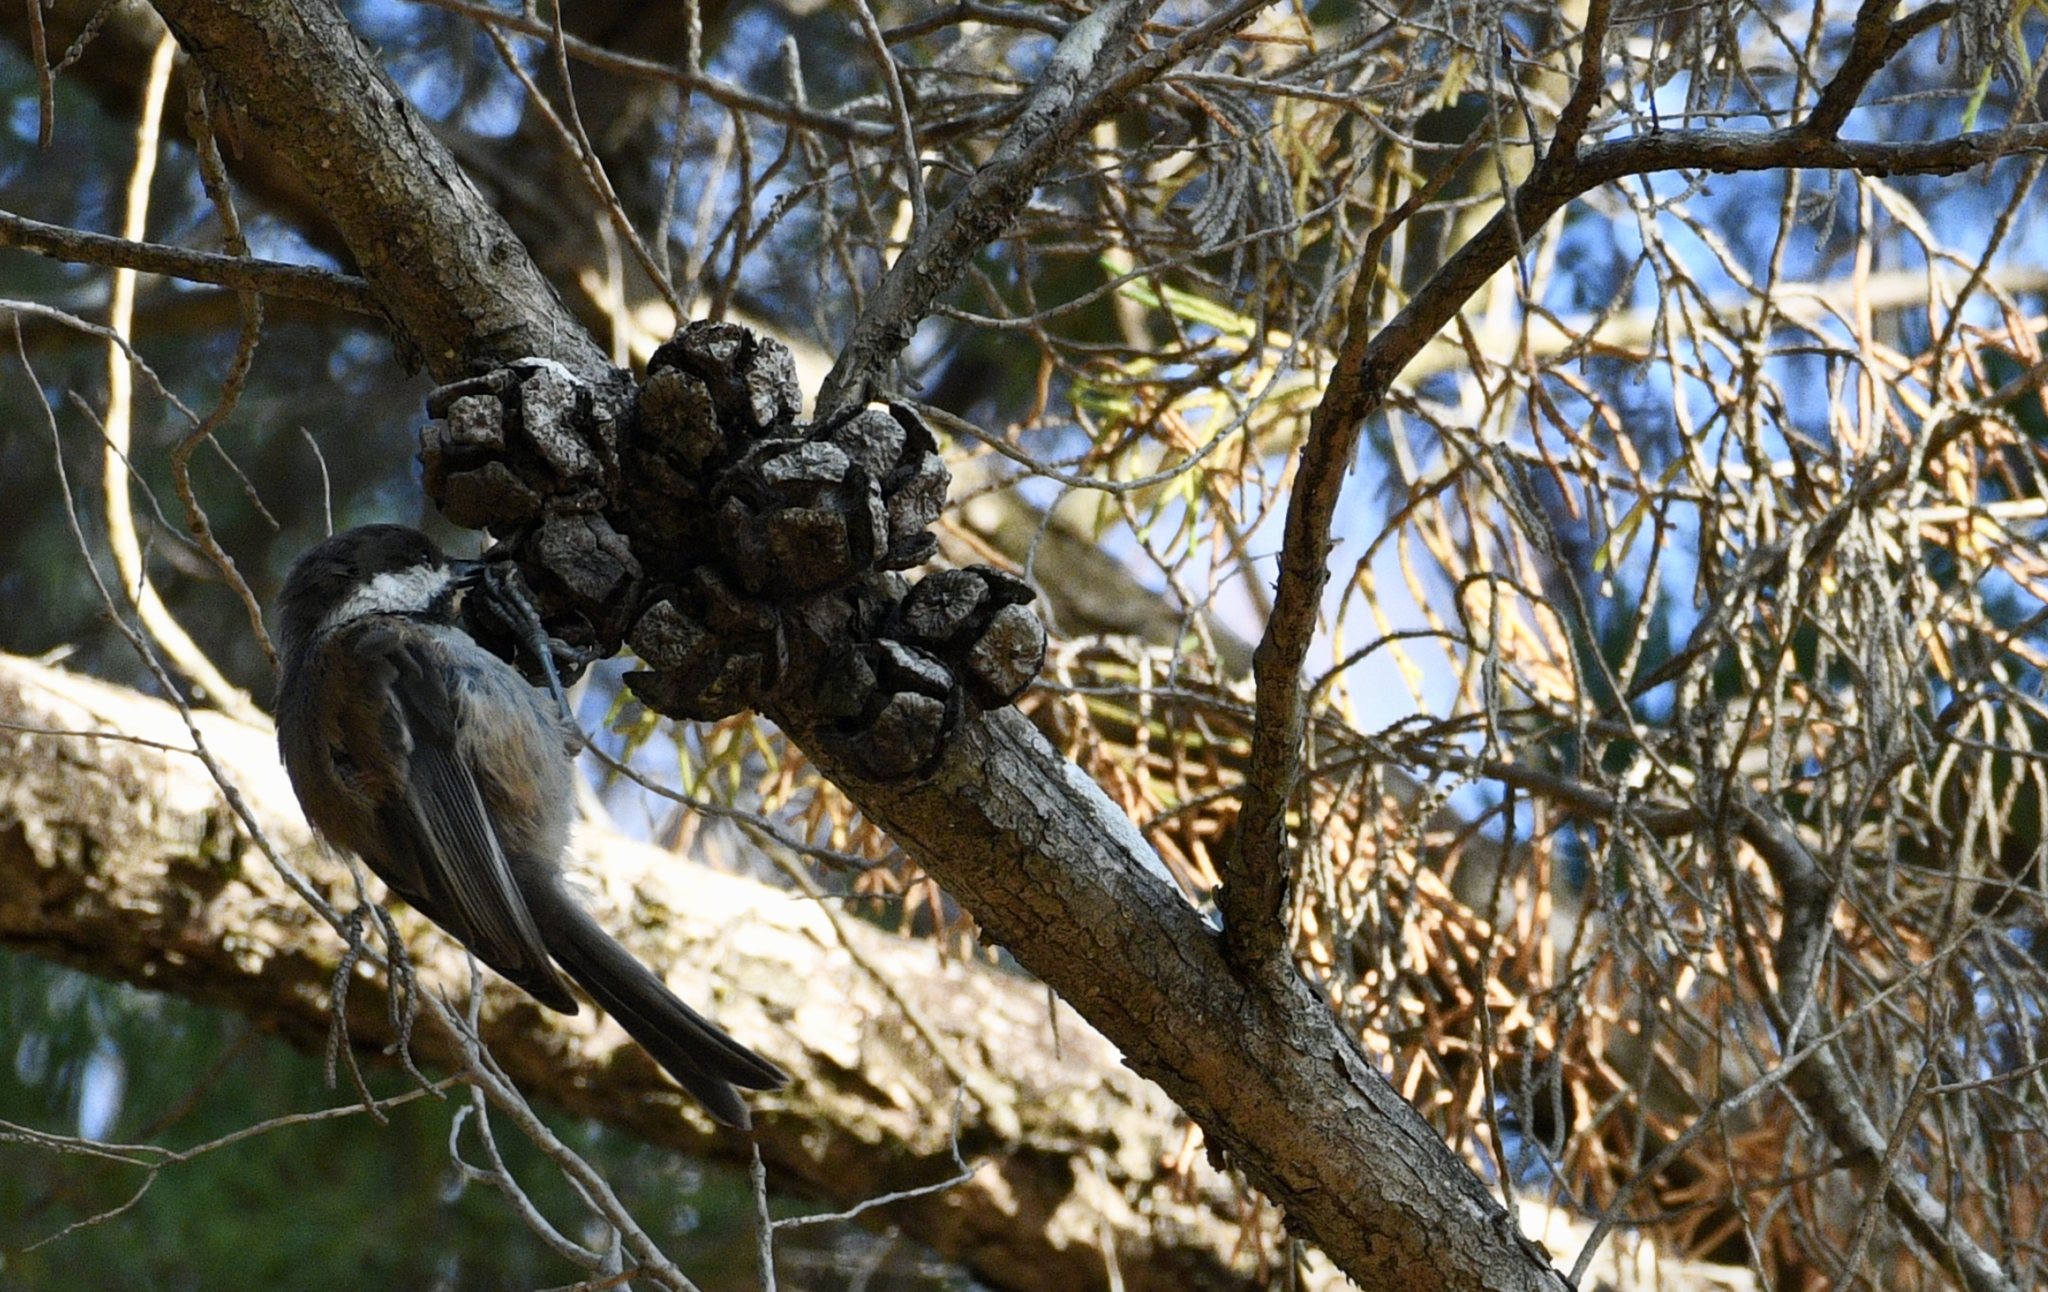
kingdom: Animalia
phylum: Chordata
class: Aves
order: Passeriformes
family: Paridae
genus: Poecile
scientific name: Poecile rufescens
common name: Chestnut-backed chickadee
